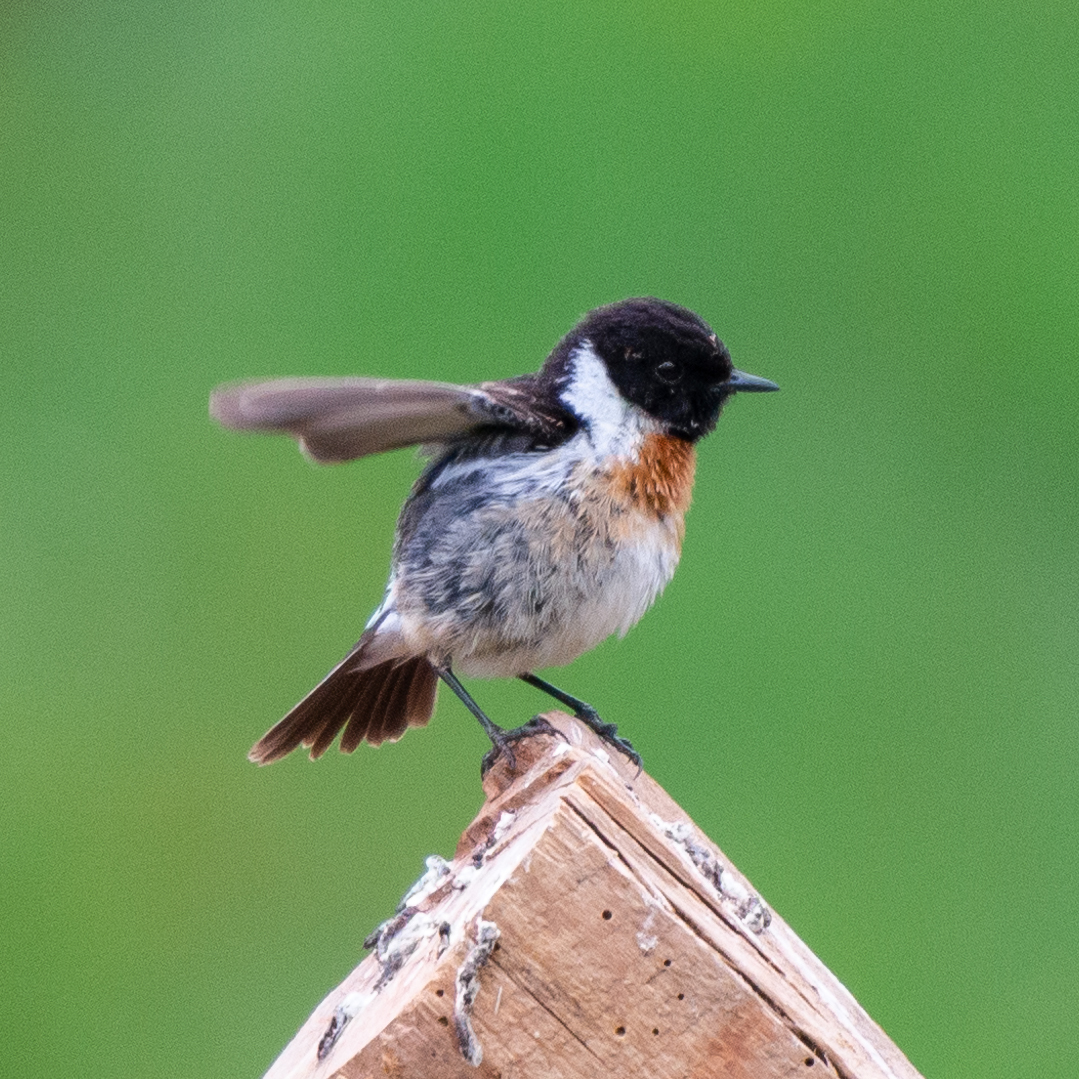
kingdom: Animalia
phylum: Chordata
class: Aves
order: Passeriformes
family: Muscicapidae
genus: Saxicola
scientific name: Saxicola rubicola
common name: European stonechat
